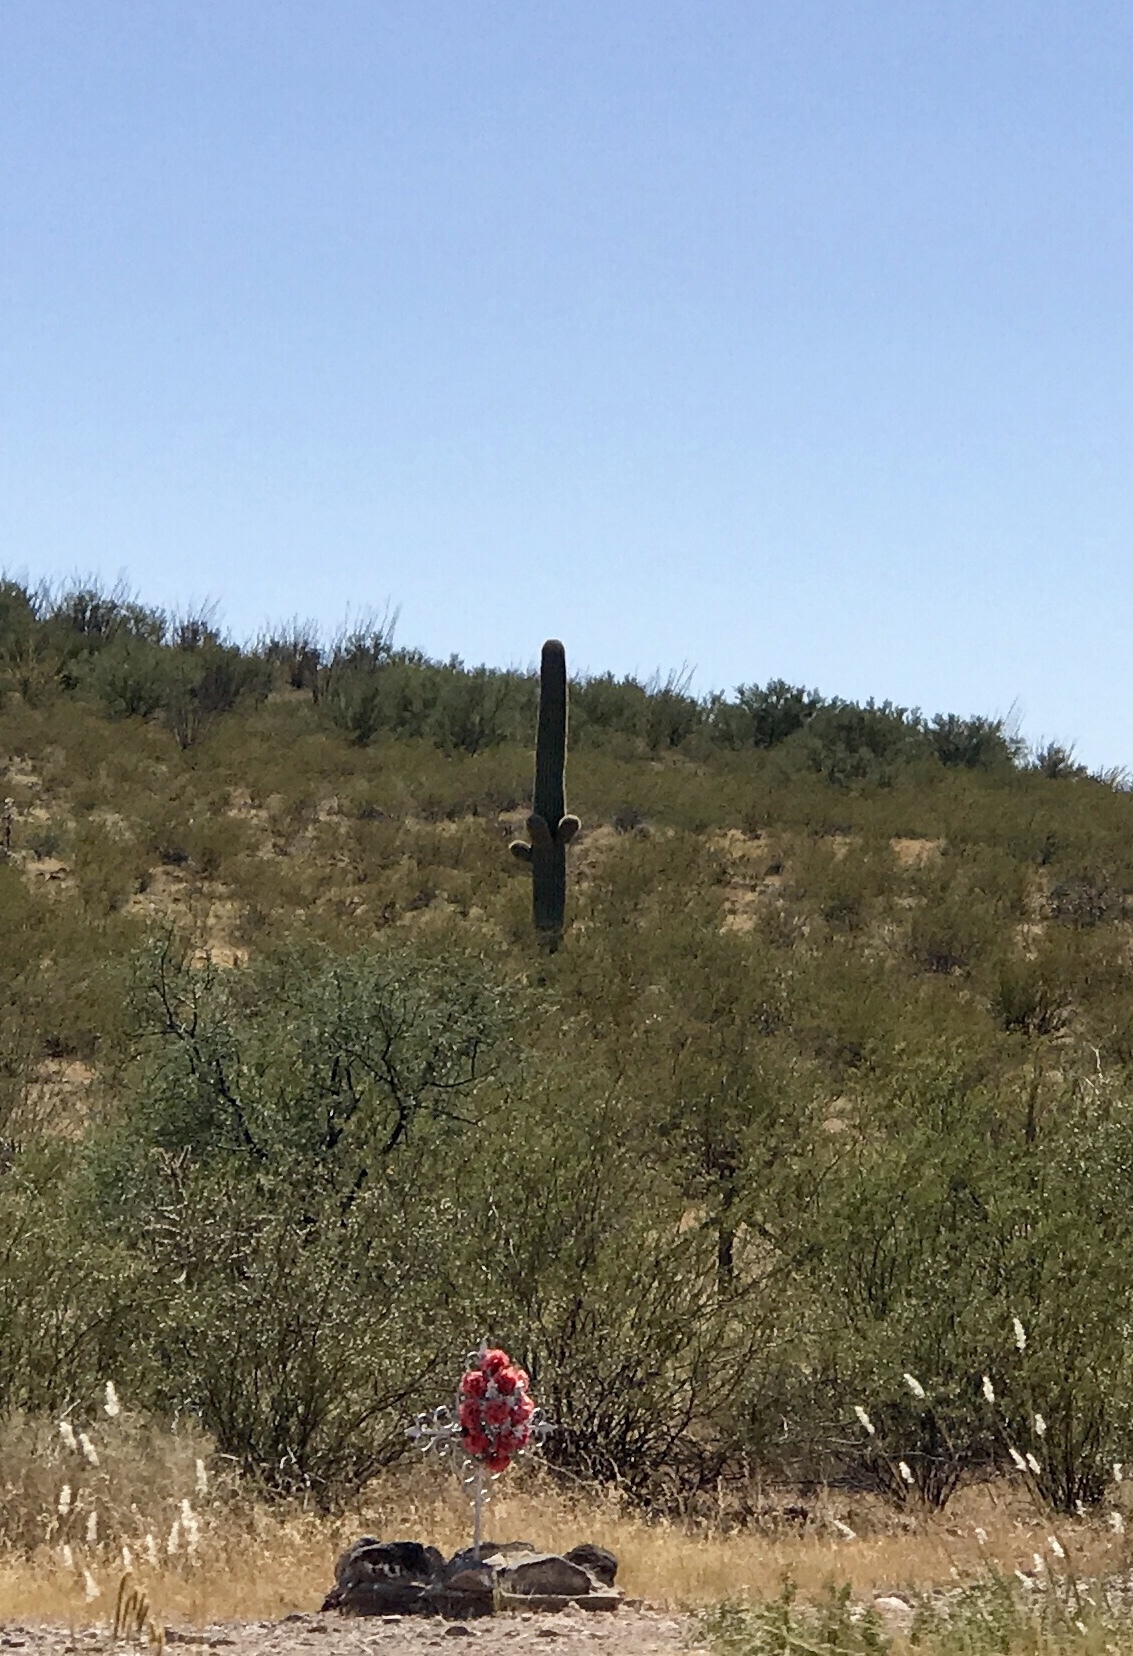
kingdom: Plantae
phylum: Tracheophyta
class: Magnoliopsida
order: Caryophyllales
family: Cactaceae
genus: Carnegiea
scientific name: Carnegiea gigantea
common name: Saguaro
